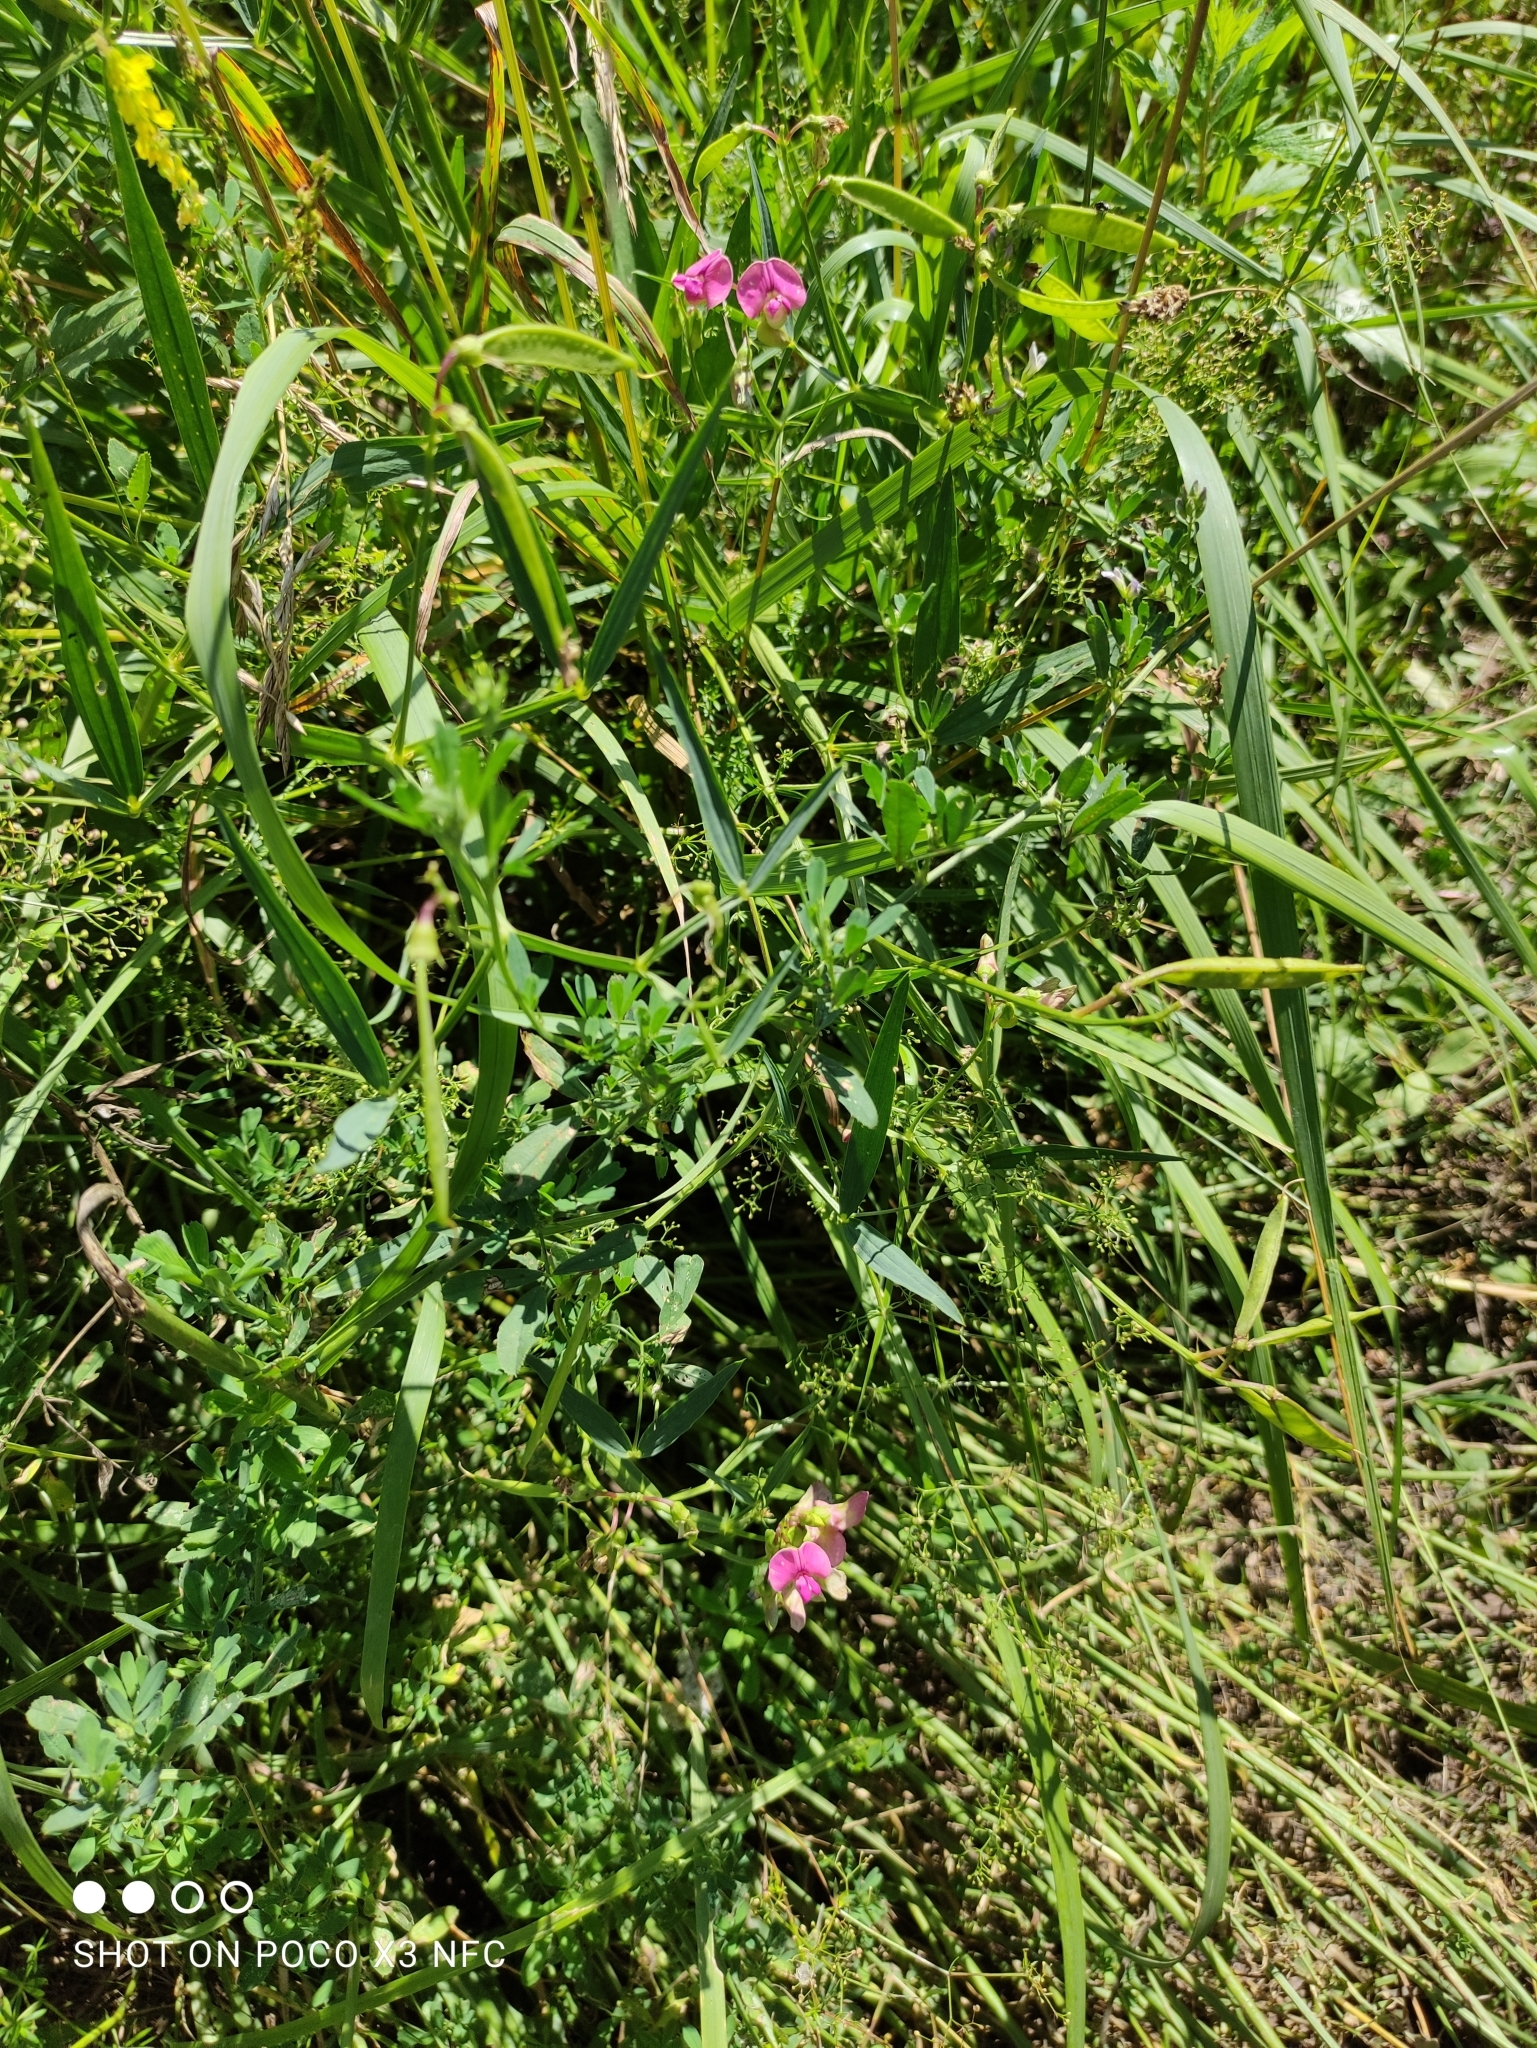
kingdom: Plantae
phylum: Tracheophyta
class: Magnoliopsida
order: Fabales
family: Fabaceae
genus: Lathyrus
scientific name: Lathyrus sylvestris
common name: Flat pea
